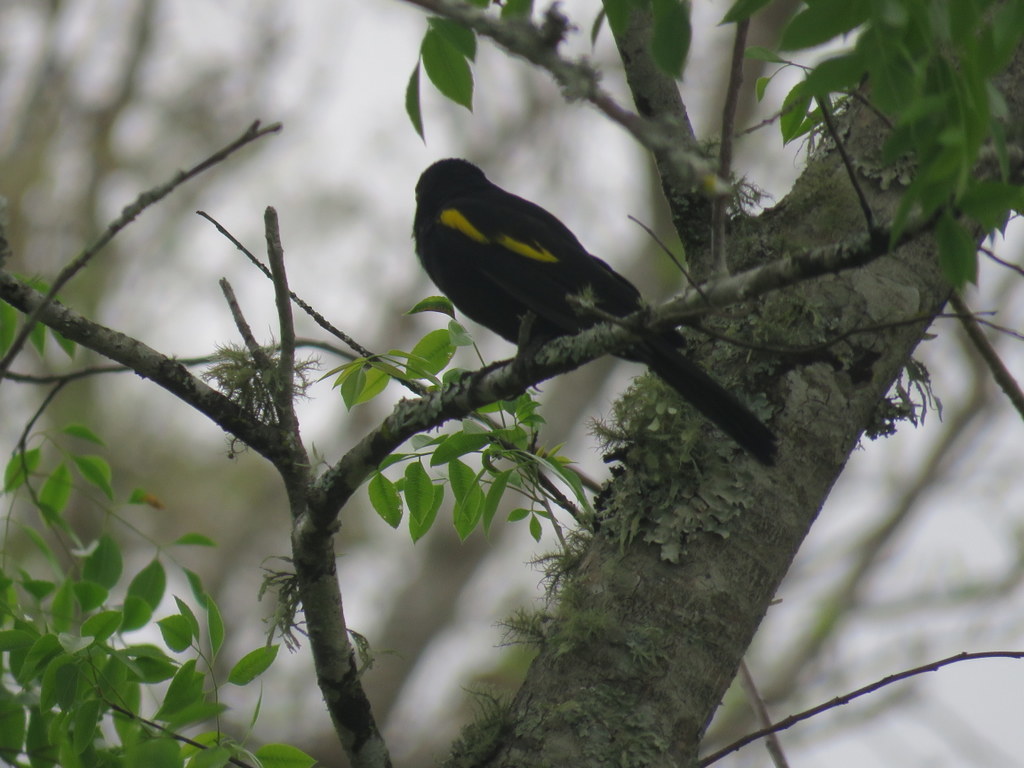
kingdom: Animalia
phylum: Chordata
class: Aves
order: Passeriformes
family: Icteridae
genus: Cacicus
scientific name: Cacicus chrysopterus
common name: Golden-winged cacique
